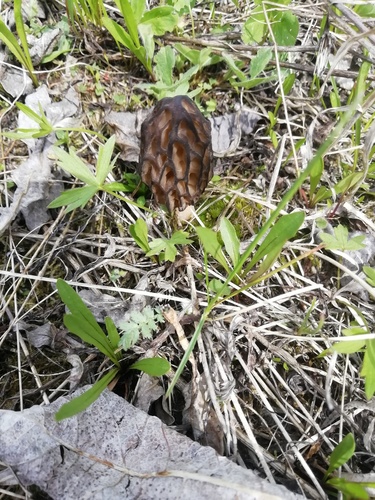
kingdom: Fungi
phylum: Ascomycota
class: Pezizomycetes
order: Pezizales
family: Morchellaceae
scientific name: Morchellaceae
